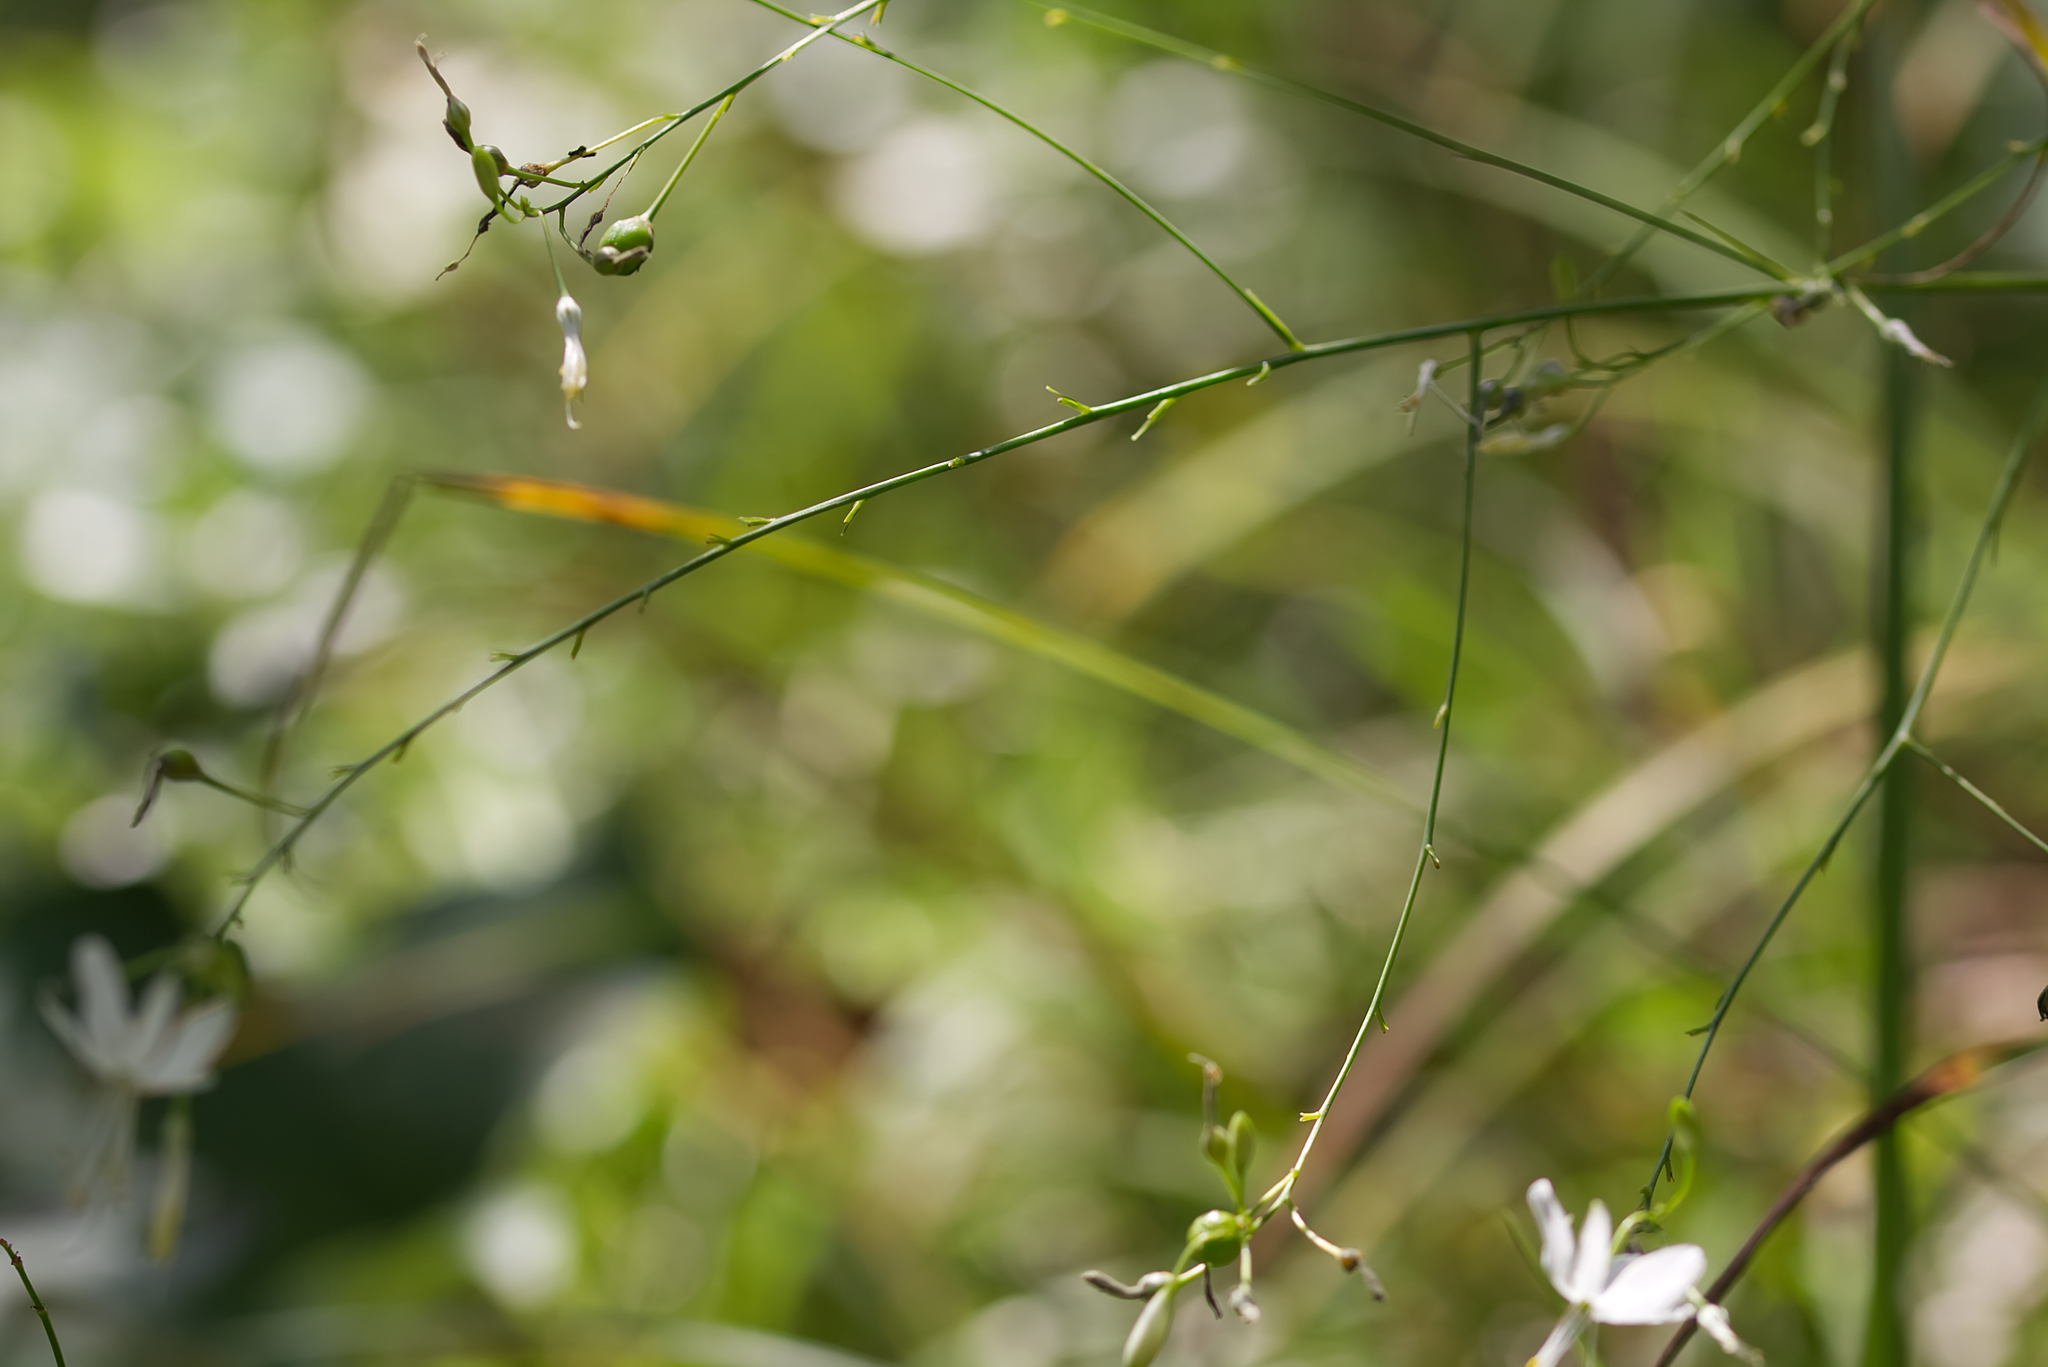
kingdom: Plantae
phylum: Tracheophyta
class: Liliopsida
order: Asparagales
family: Asparagaceae
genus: Anthericum
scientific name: Anthericum ramosum
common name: Branched st. bernard's-lily
